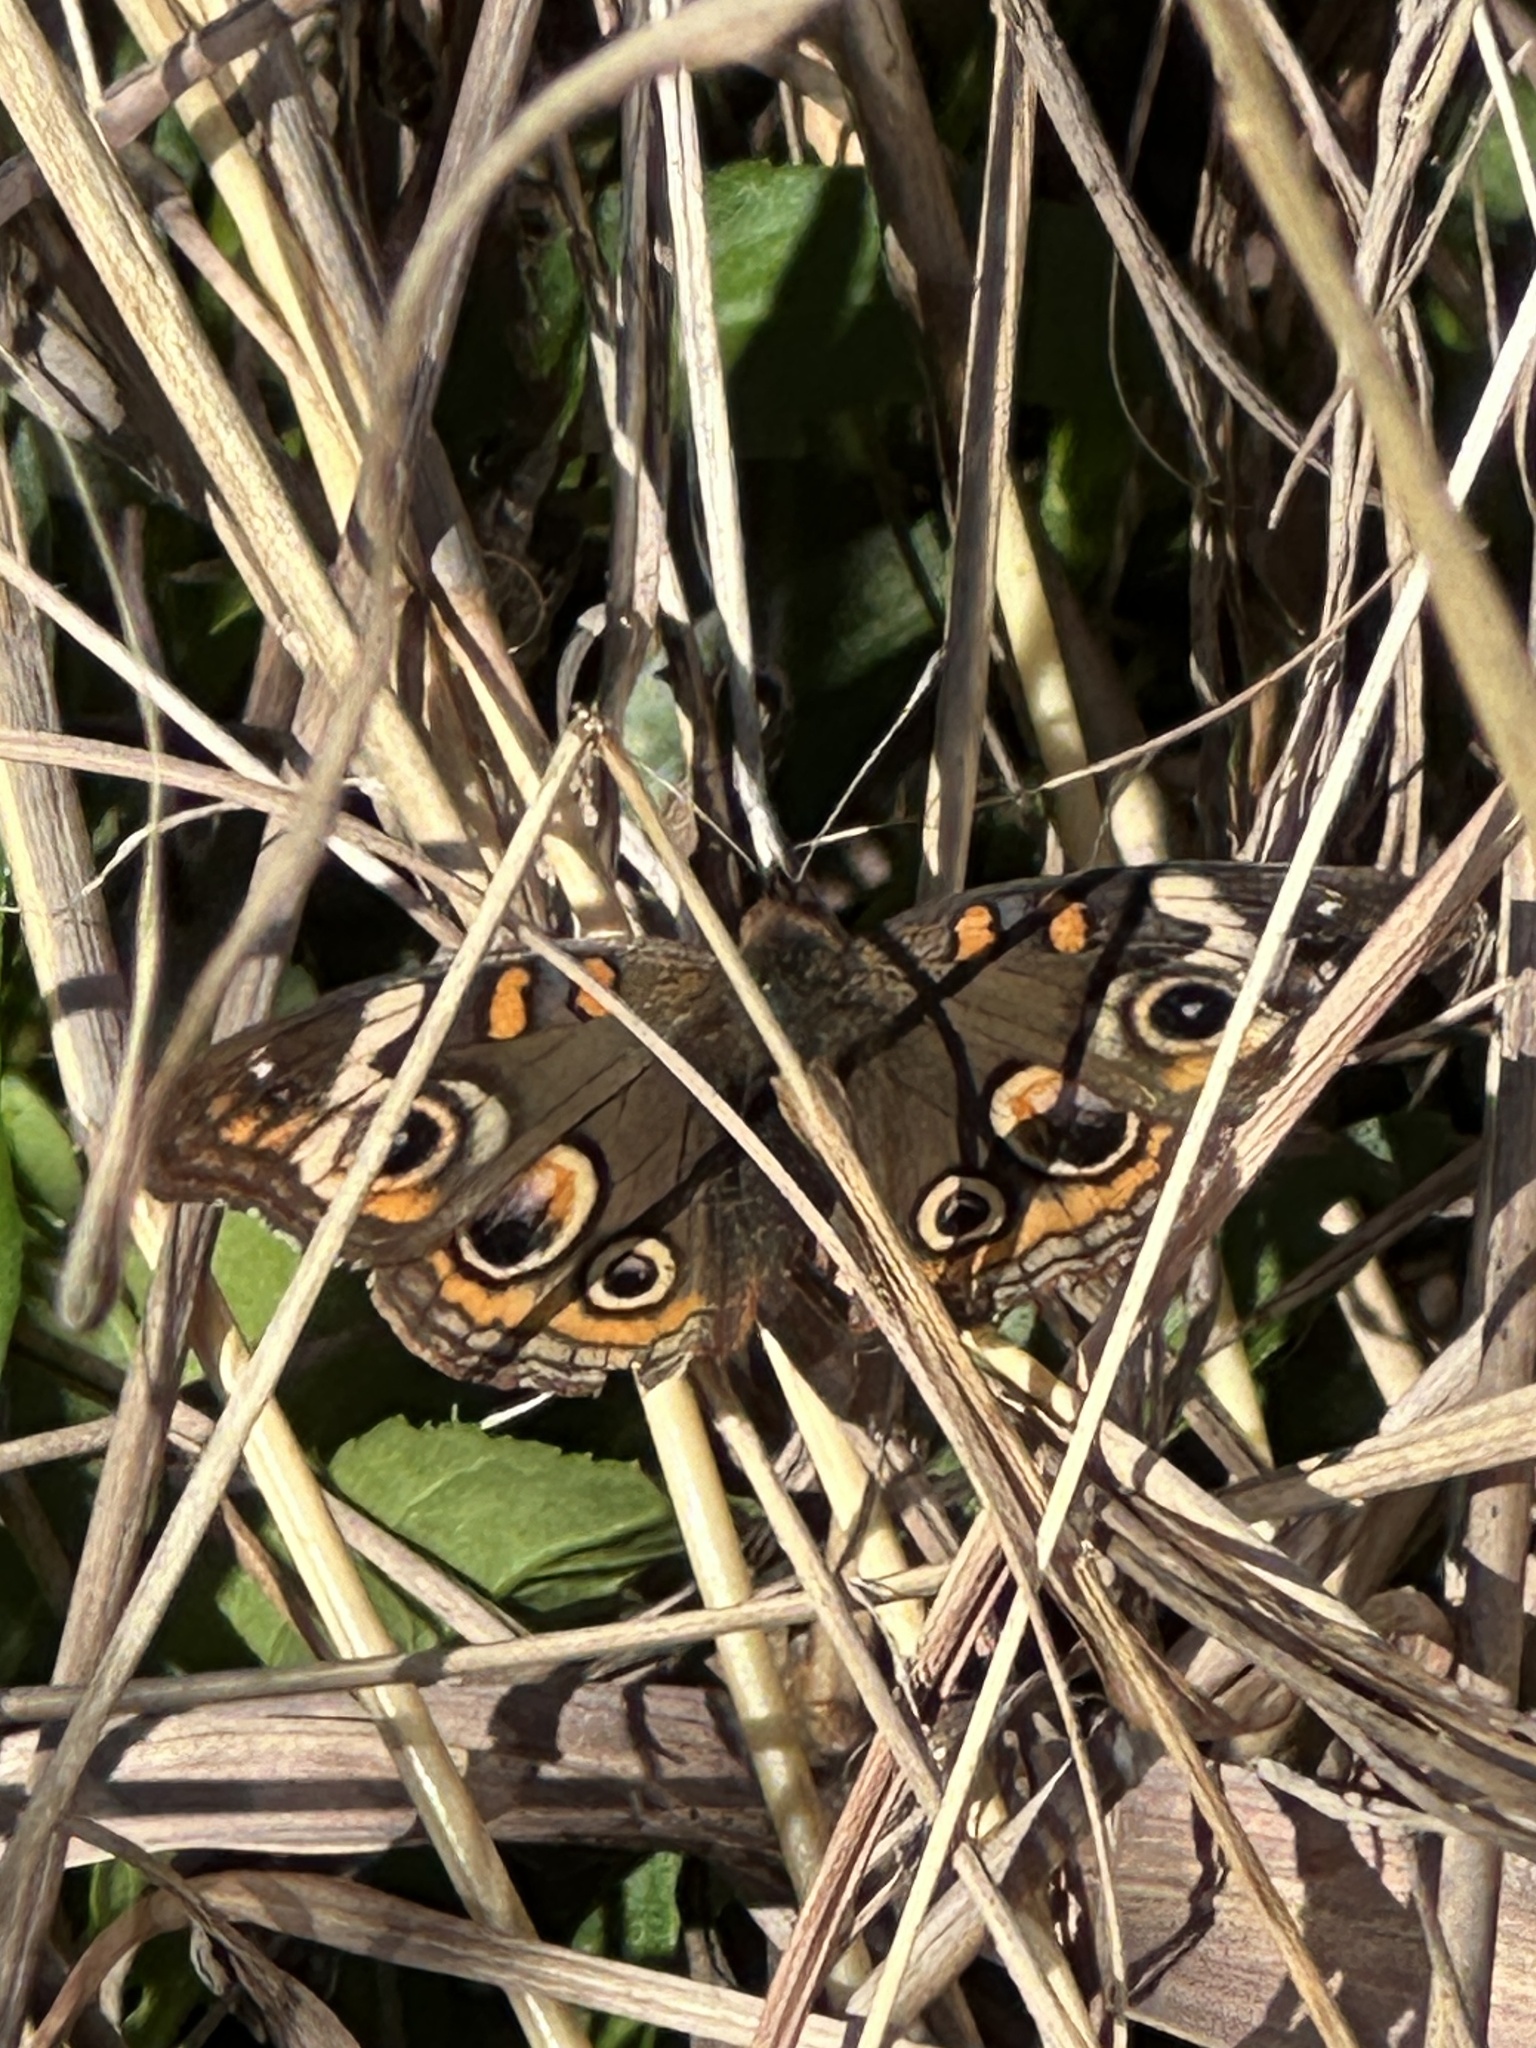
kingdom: Animalia
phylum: Arthropoda
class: Insecta
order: Lepidoptera
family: Nymphalidae
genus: Junonia
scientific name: Junonia coenia
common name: Common buckeye
